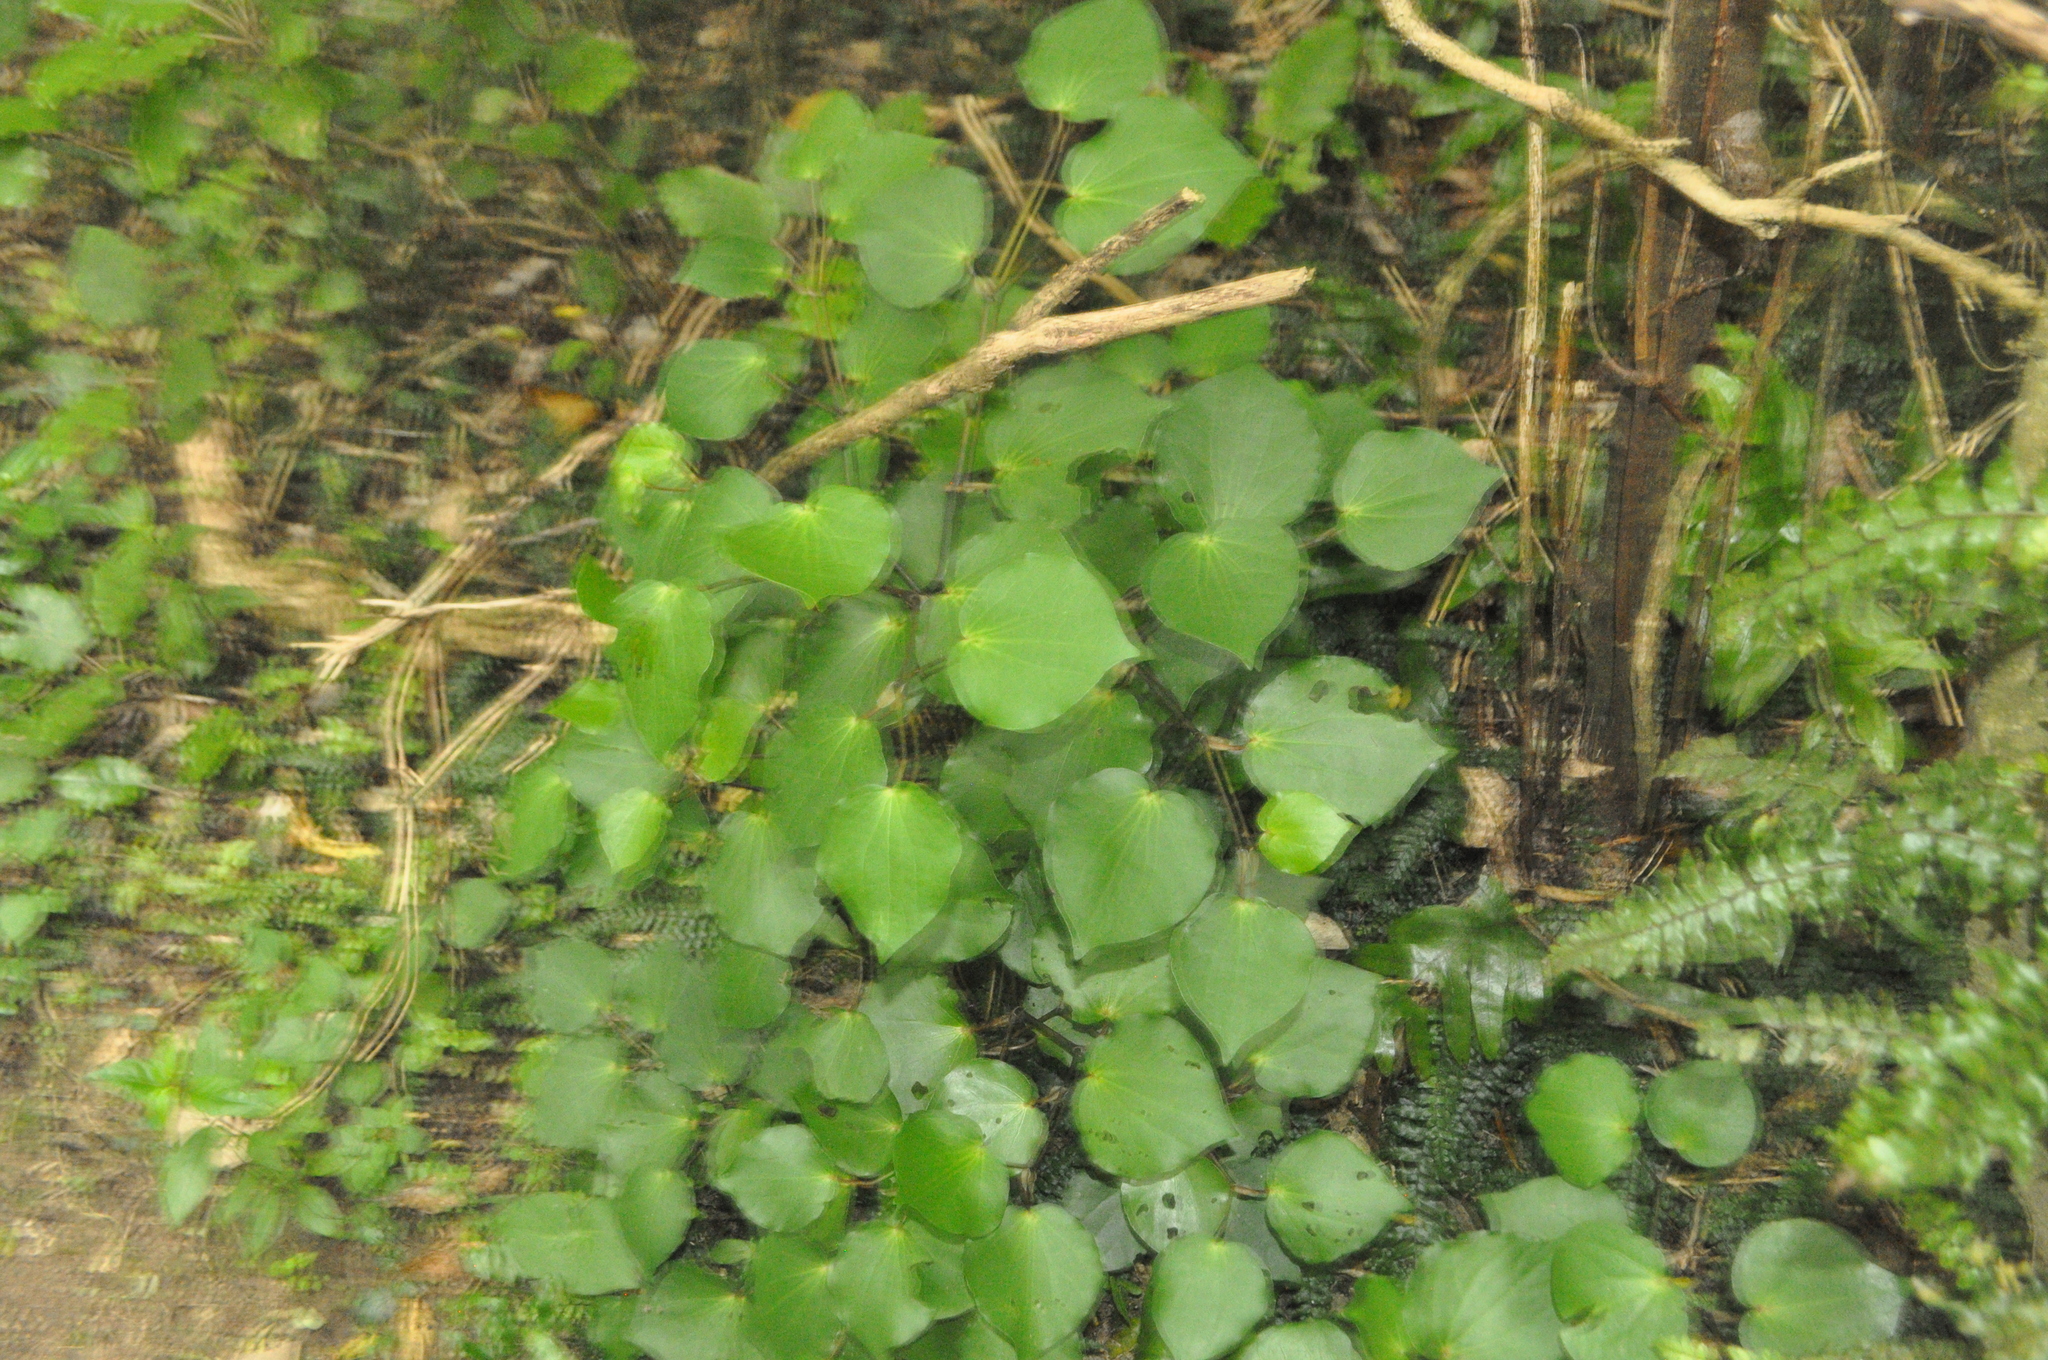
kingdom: Plantae
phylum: Tracheophyta
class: Magnoliopsida
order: Piperales
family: Piperaceae
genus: Macropiper
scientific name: Macropiper excelsum
